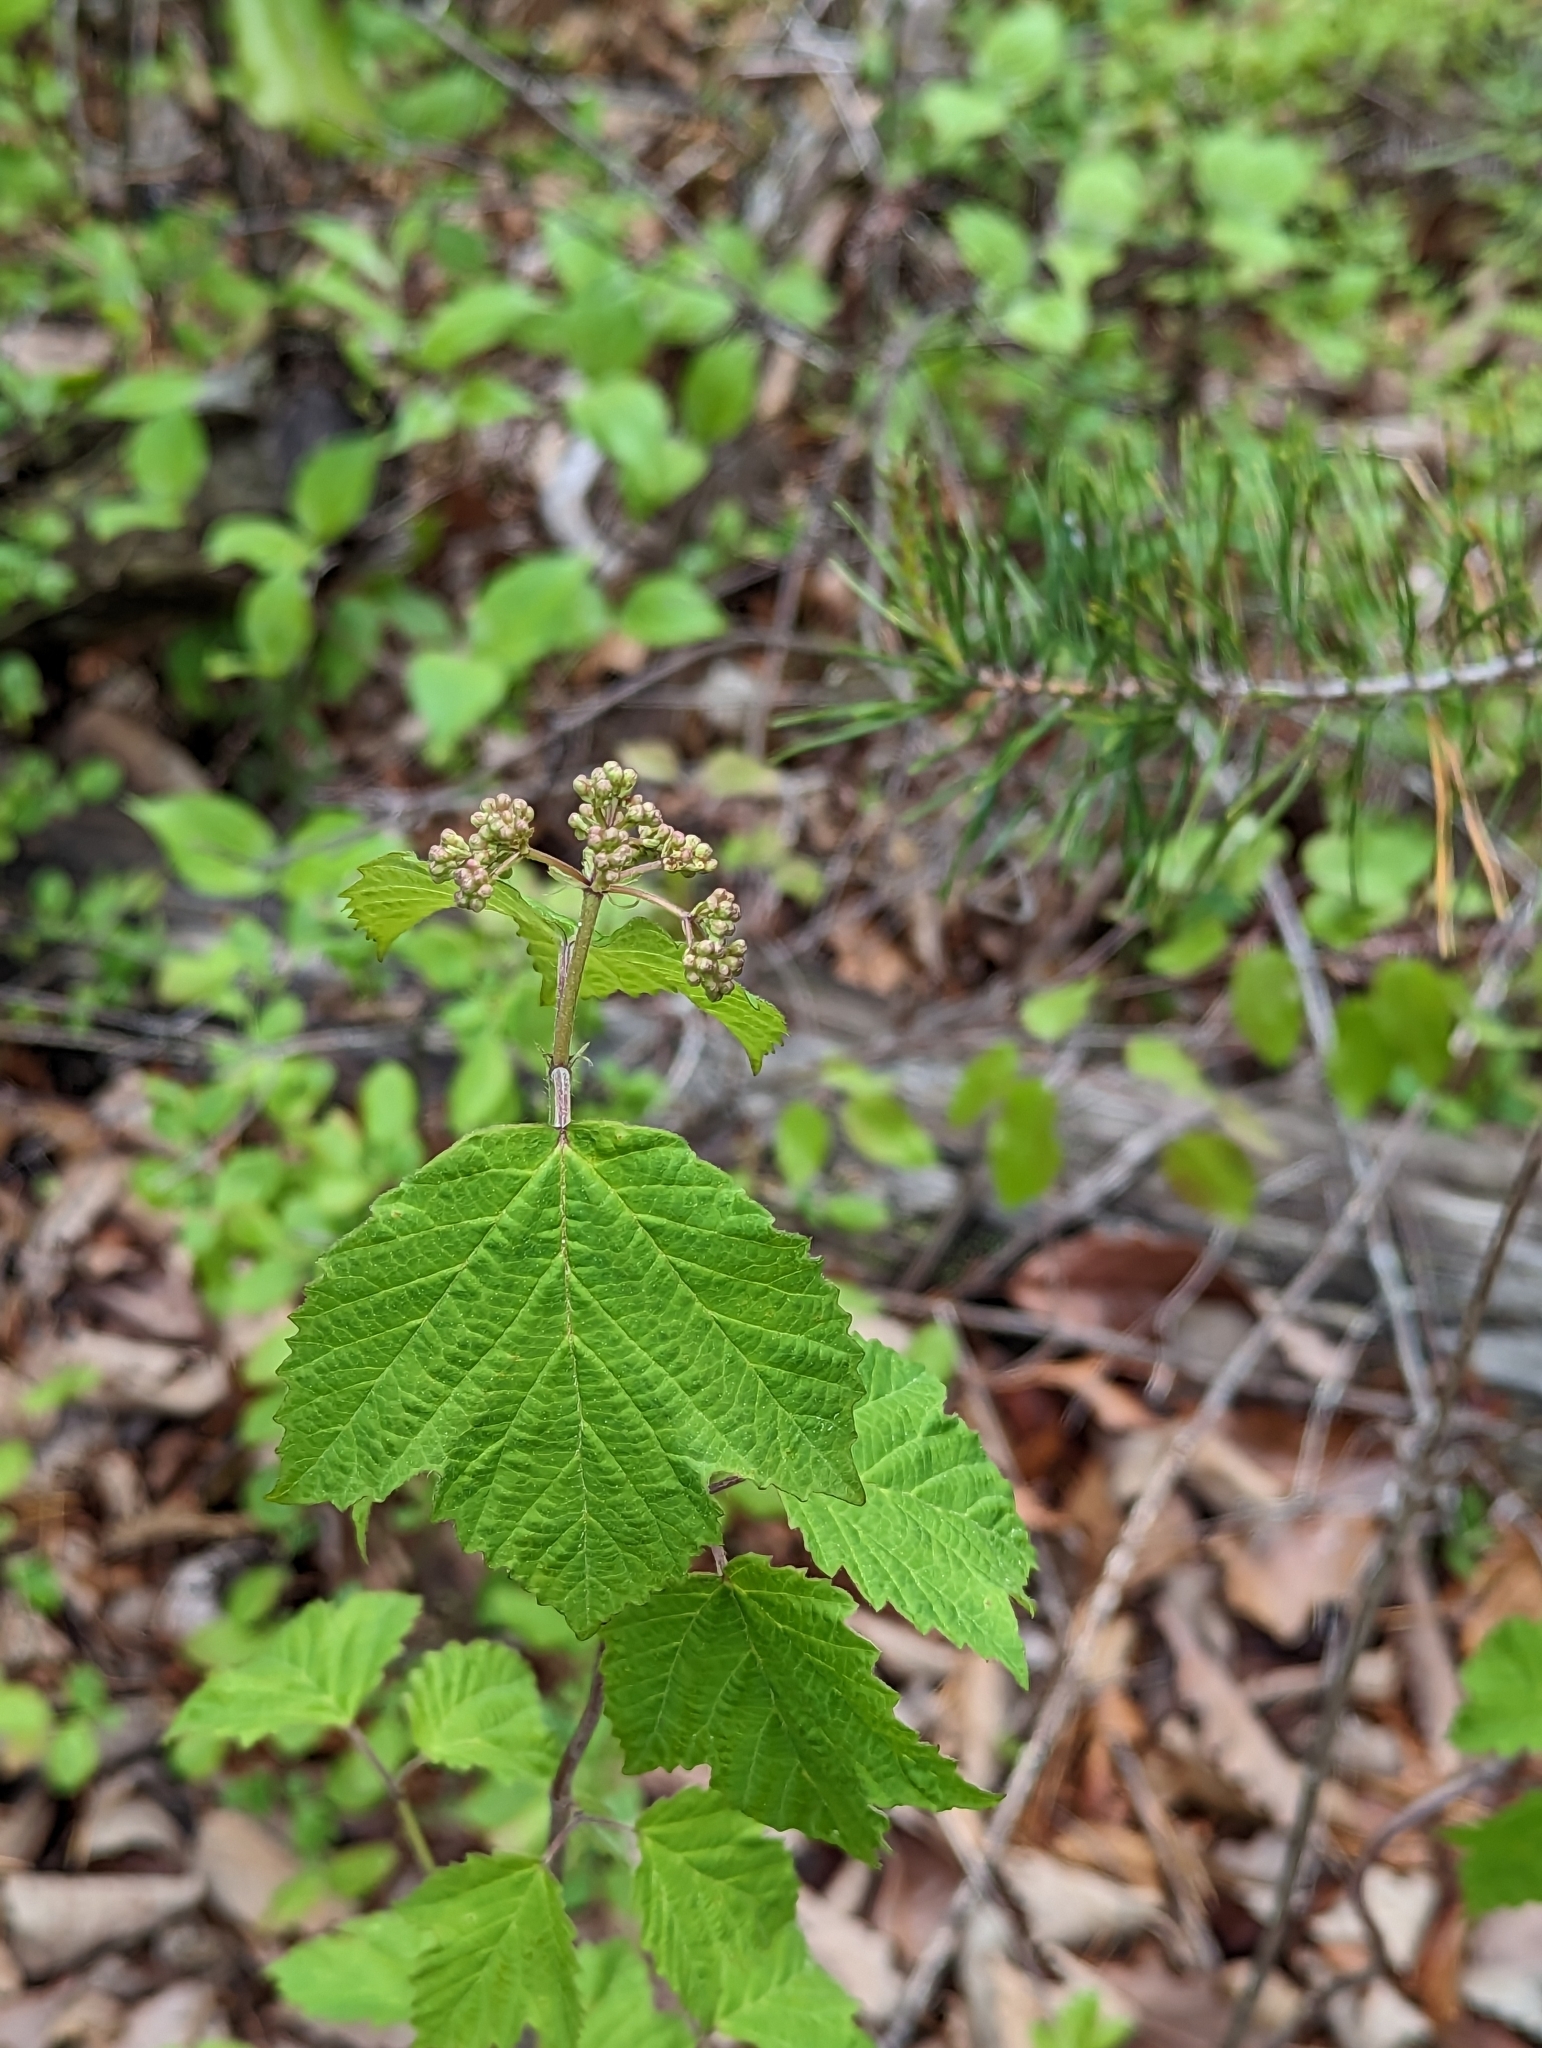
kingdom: Plantae
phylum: Tracheophyta
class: Magnoliopsida
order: Dipsacales
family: Viburnaceae
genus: Viburnum
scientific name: Viburnum acerifolium
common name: Dockmackie
